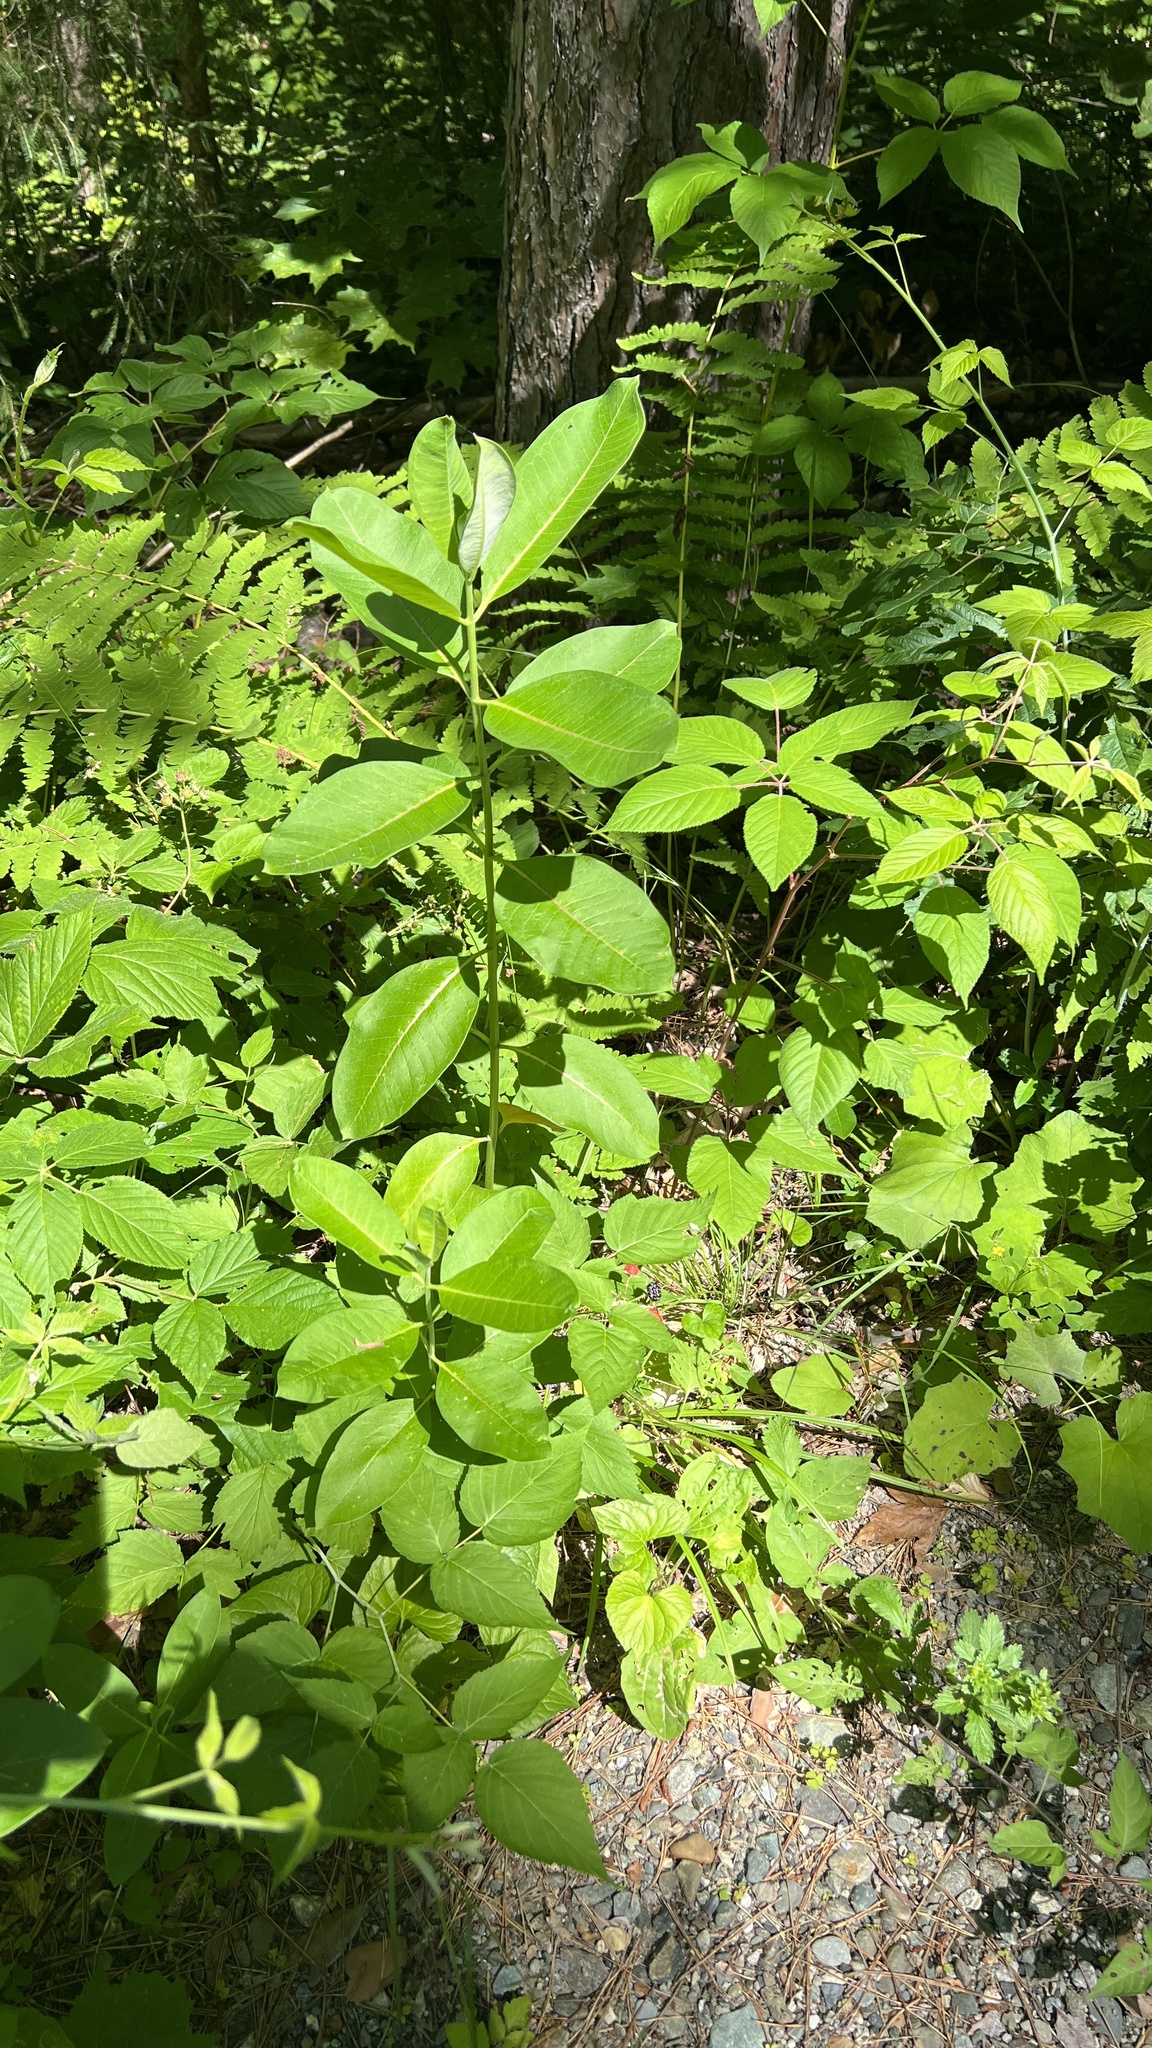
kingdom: Plantae
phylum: Tracheophyta
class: Magnoliopsida
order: Gentianales
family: Apocynaceae
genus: Asclepias
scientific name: Asclepias syriaca
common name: Common milkweed
